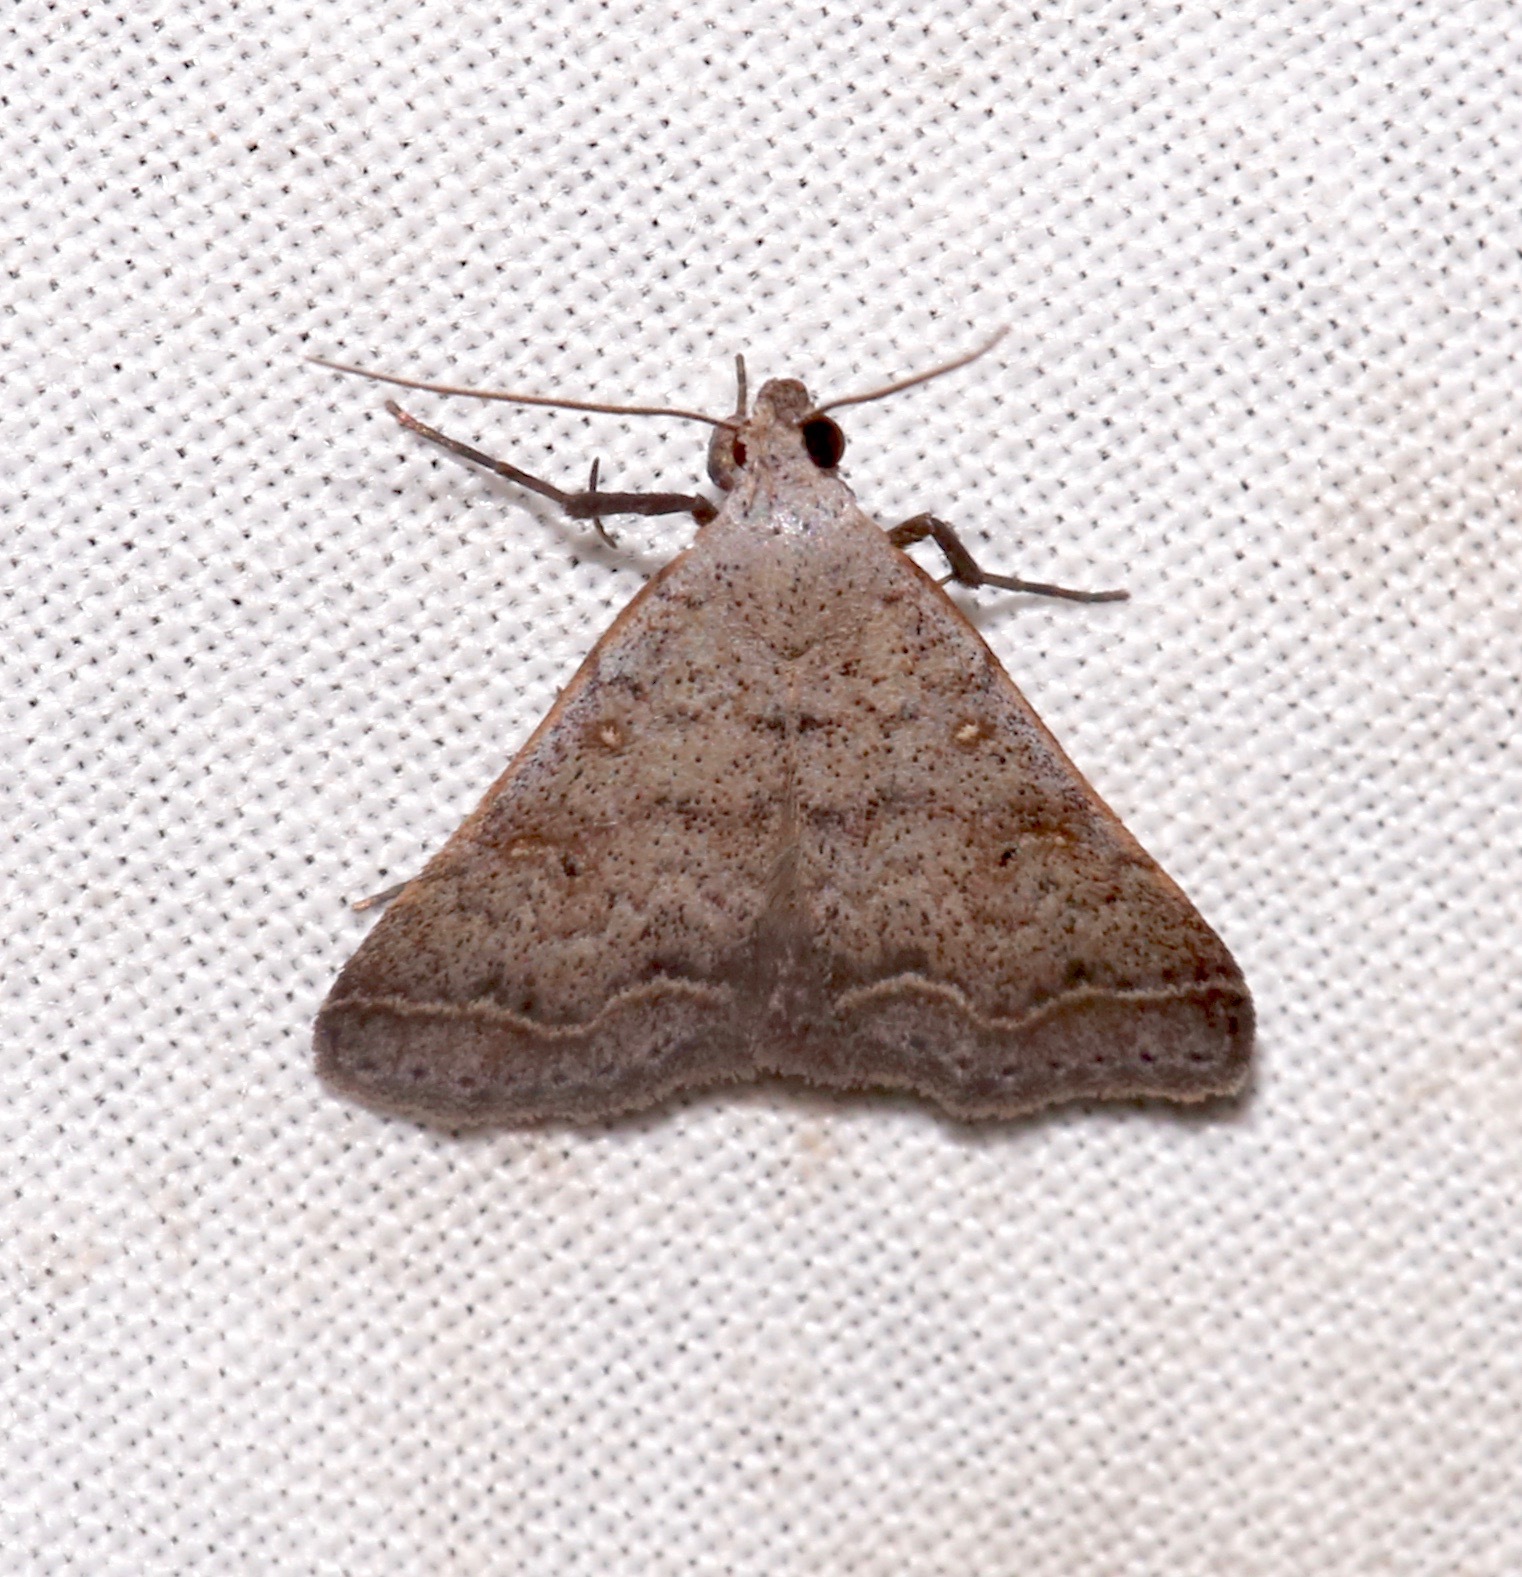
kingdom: Animalia
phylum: Arthropoda
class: Insecta
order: Lepidoptera
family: Erebidae
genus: Bleptina
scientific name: Bleptina caradrinalis
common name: Bent-winged owlet
